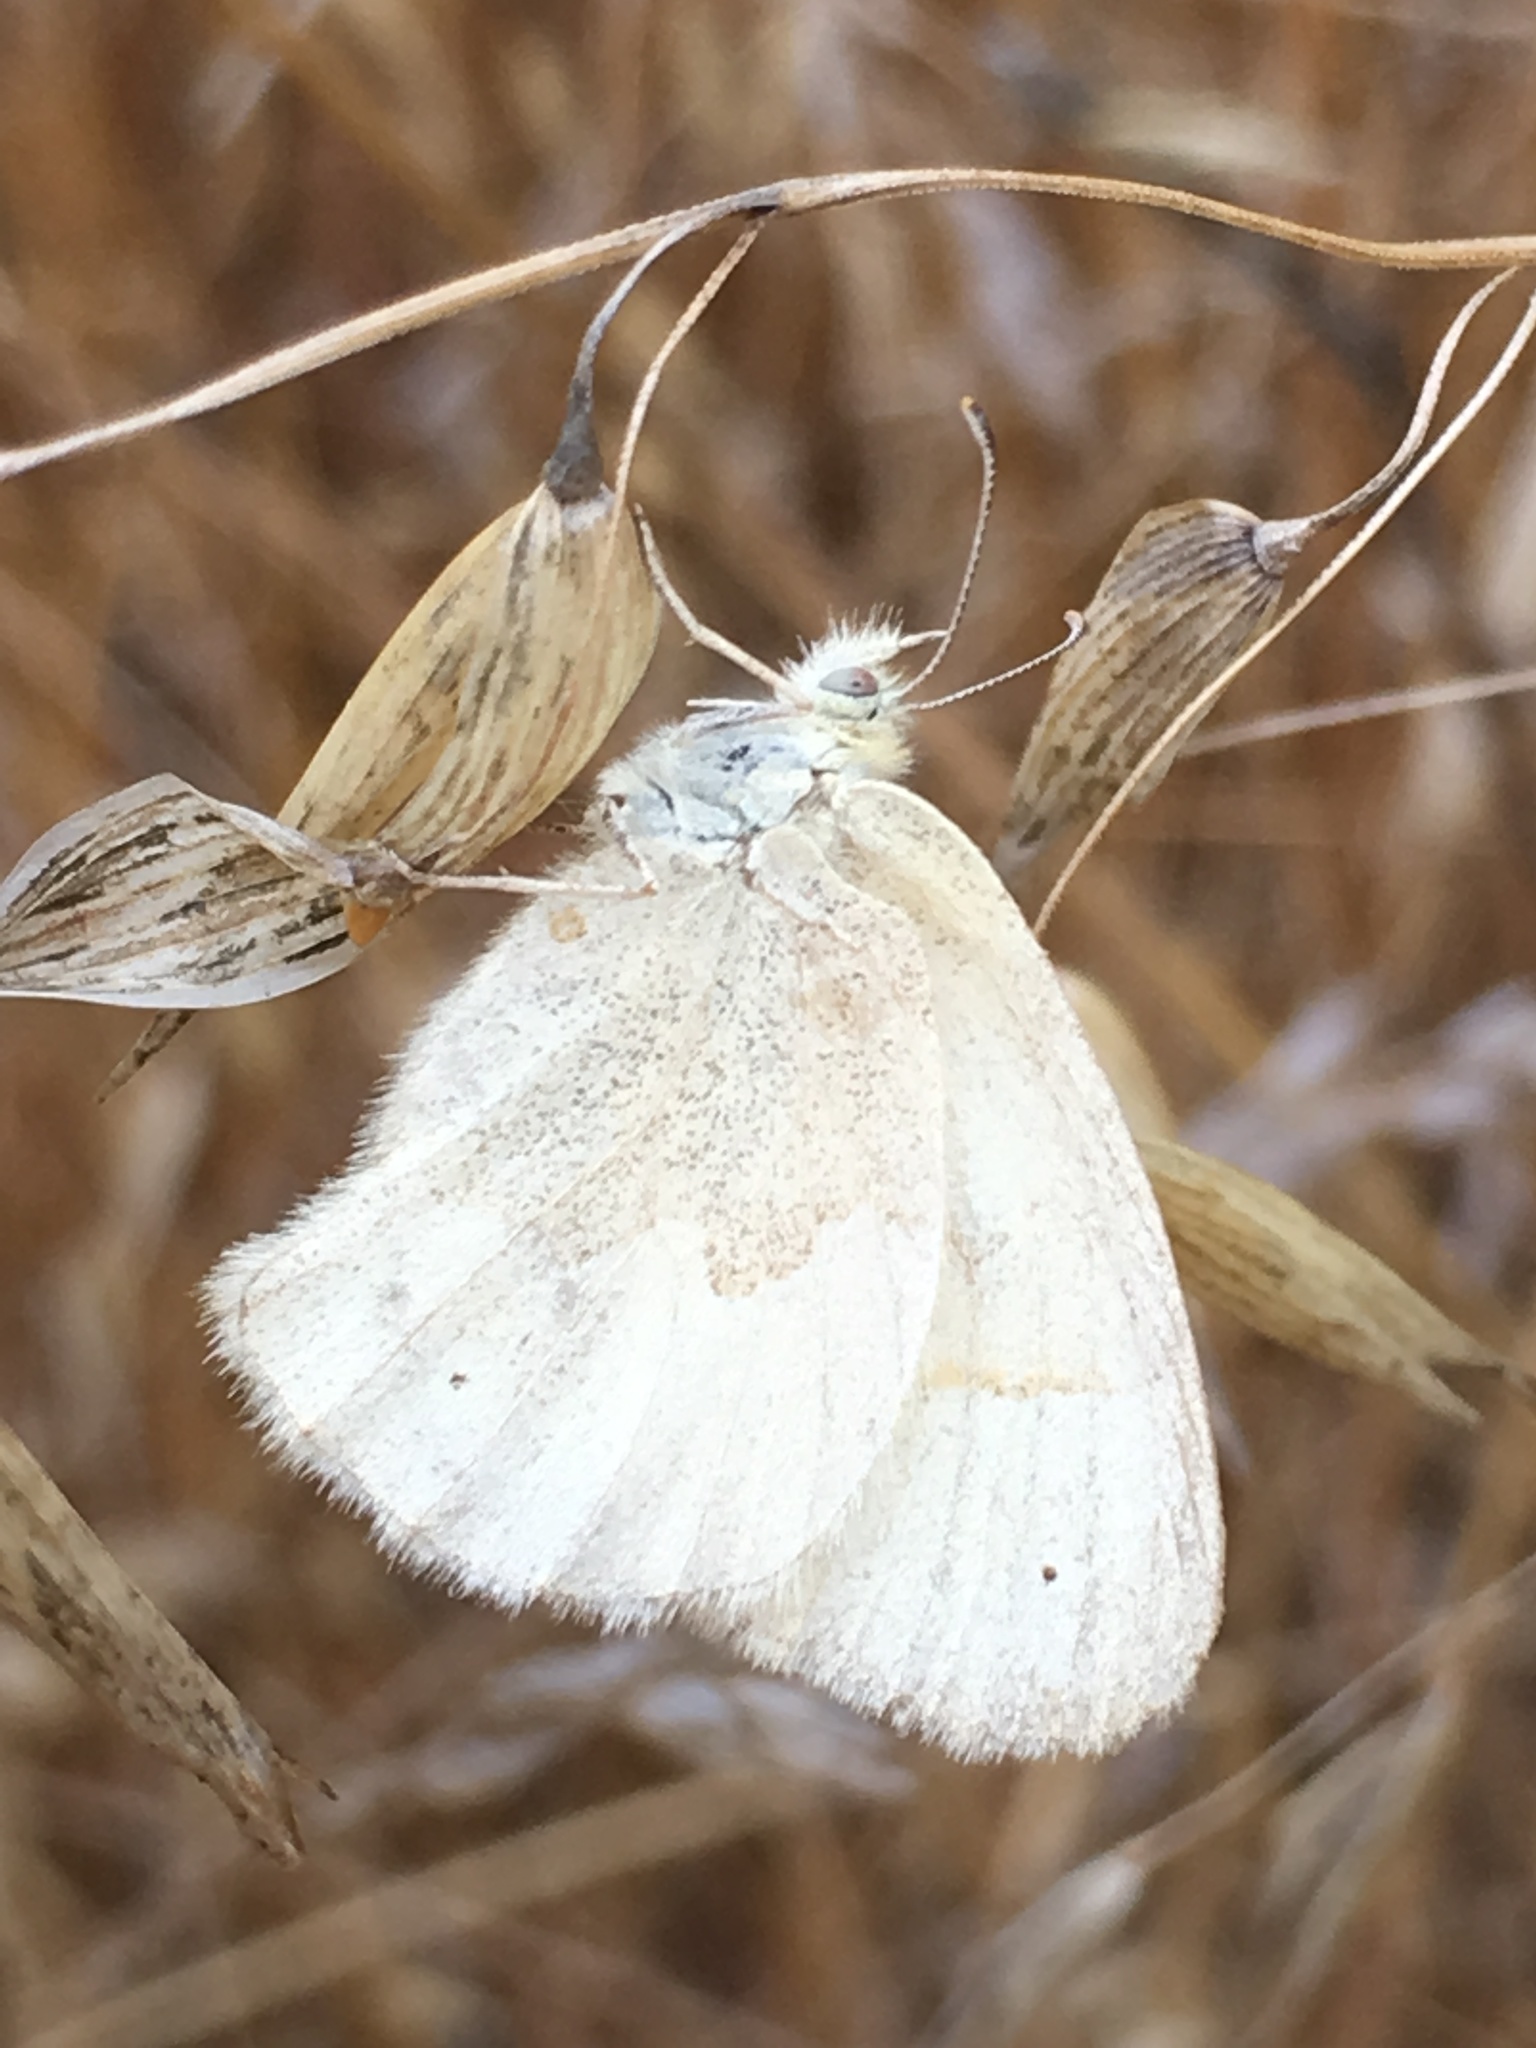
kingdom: Animalia
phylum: Arthropoda
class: Insecta
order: Lepidoptera
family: Nymphalidae
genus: Coenonympha
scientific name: Coenonympha california
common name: Common ringlet
